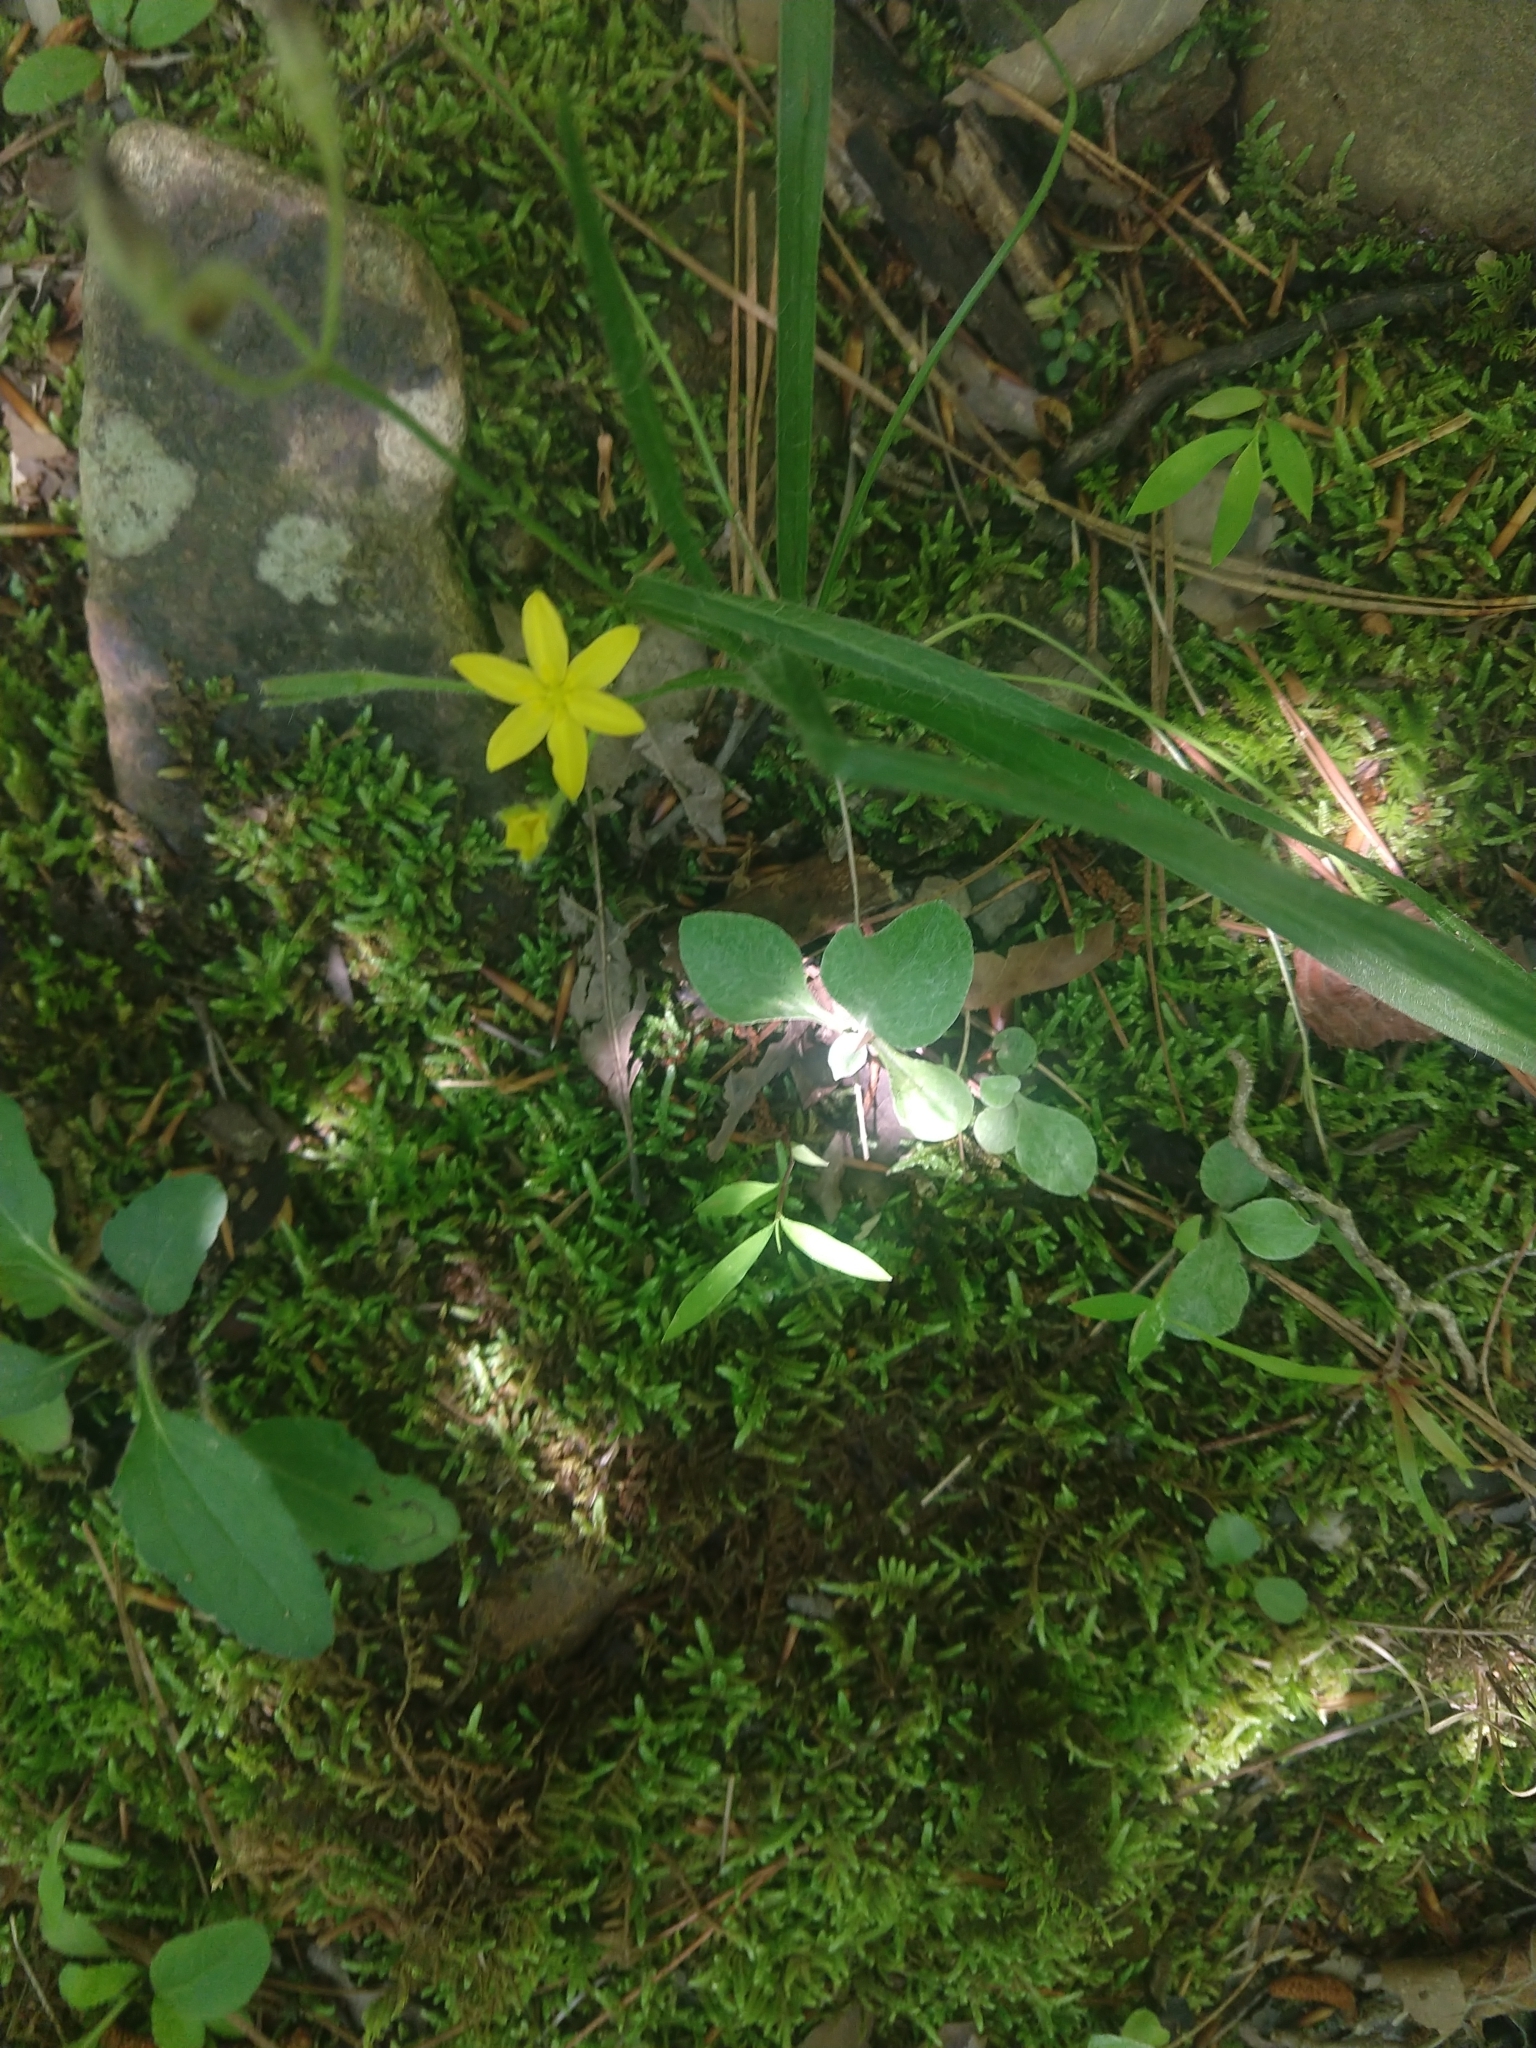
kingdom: Plantae
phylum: Tracheophyta
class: Liliopsida
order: Asparagales
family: Hypoxidaceae
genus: Hypoxis
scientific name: Hypoxis hirsuta
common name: Common goldstar
